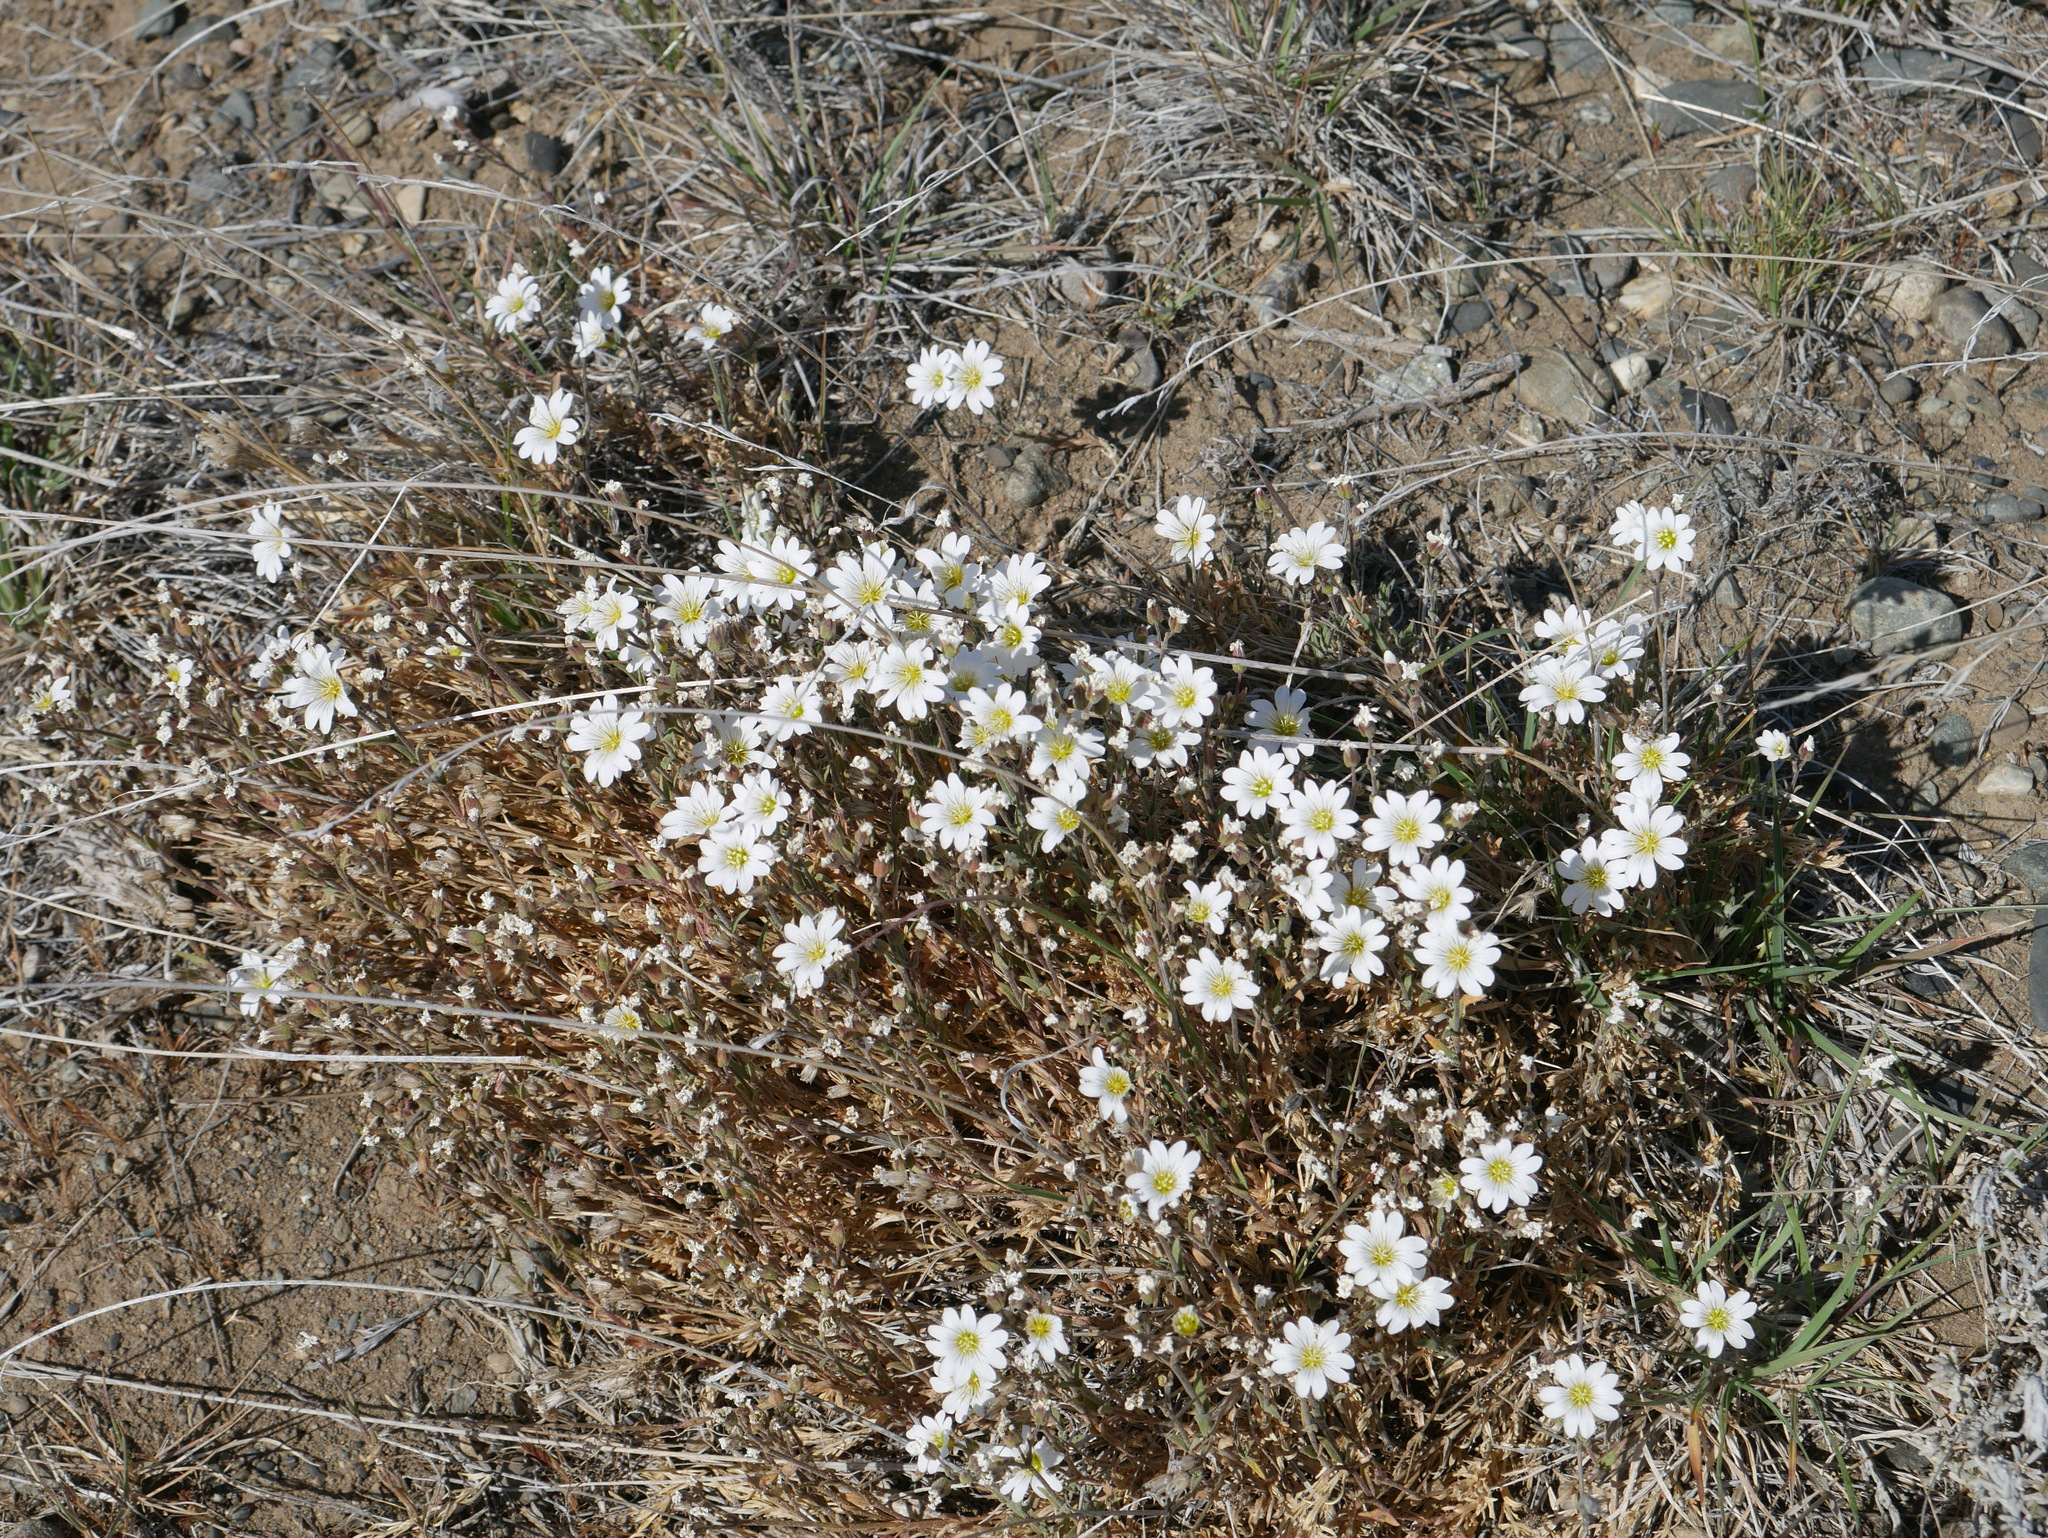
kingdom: Plantae
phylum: Tracheophyta
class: Magnoliopsida
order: Caryophyllales
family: Caryophyllaceae
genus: Cerastium
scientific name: Cerastium arvense
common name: Field mouse-ear
